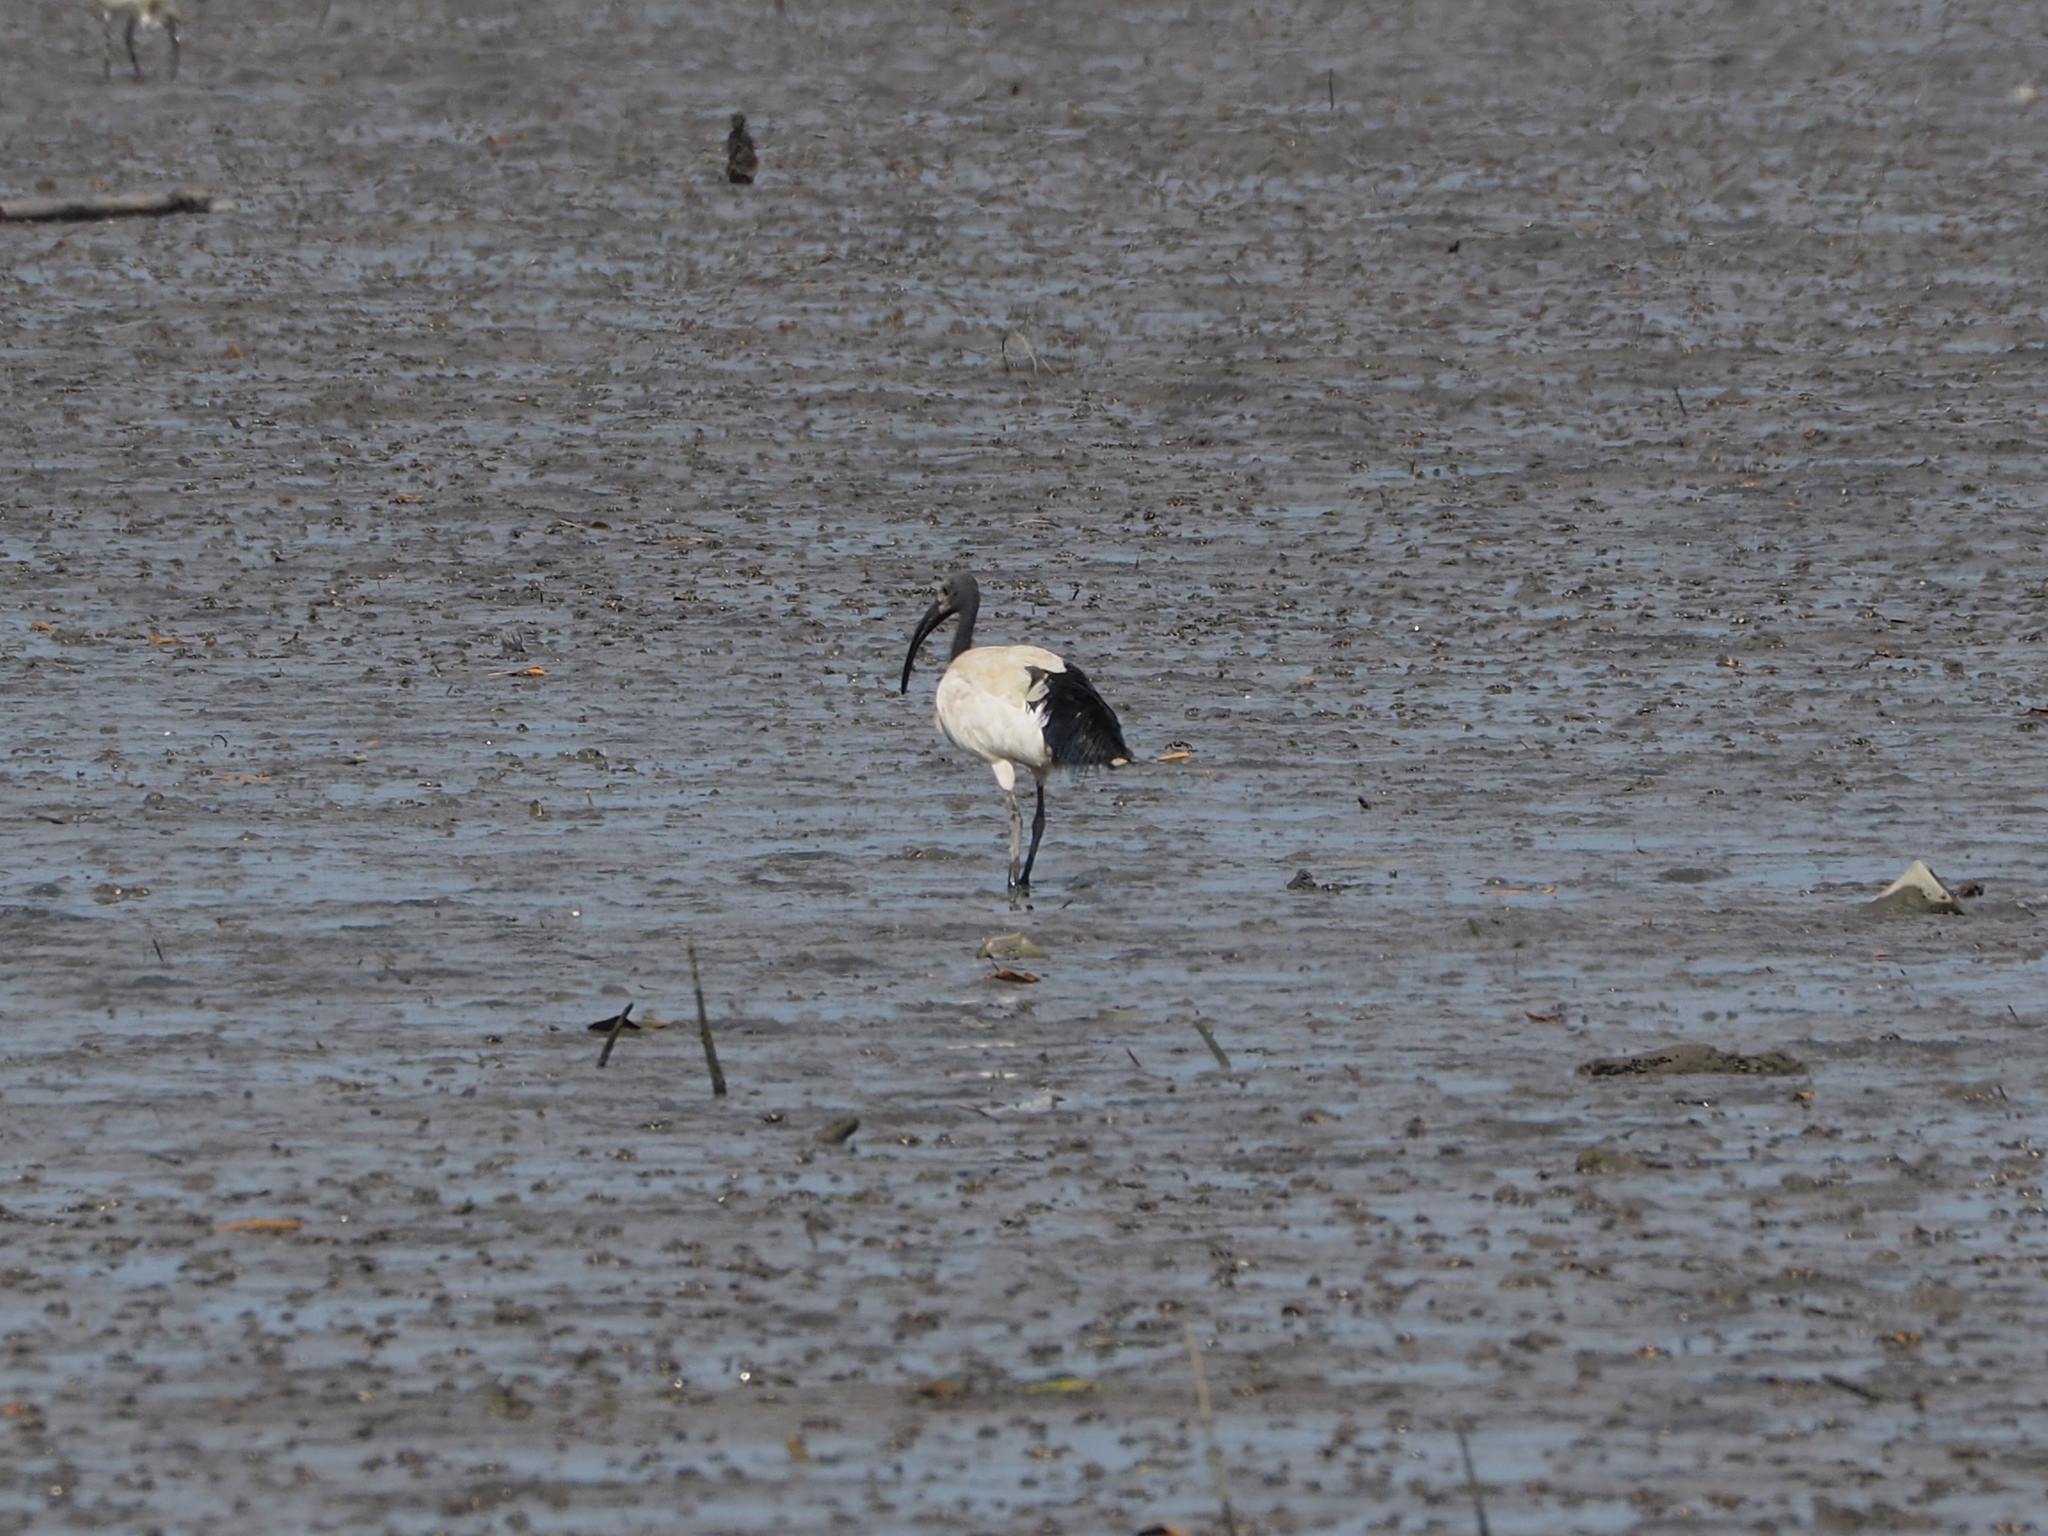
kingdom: Animalia
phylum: Chordata
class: Aves
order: Pelecaniformes
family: Threskiornithidae
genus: Threskiornis
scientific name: Threskiornis aethiopicus
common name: Sacred ibis
